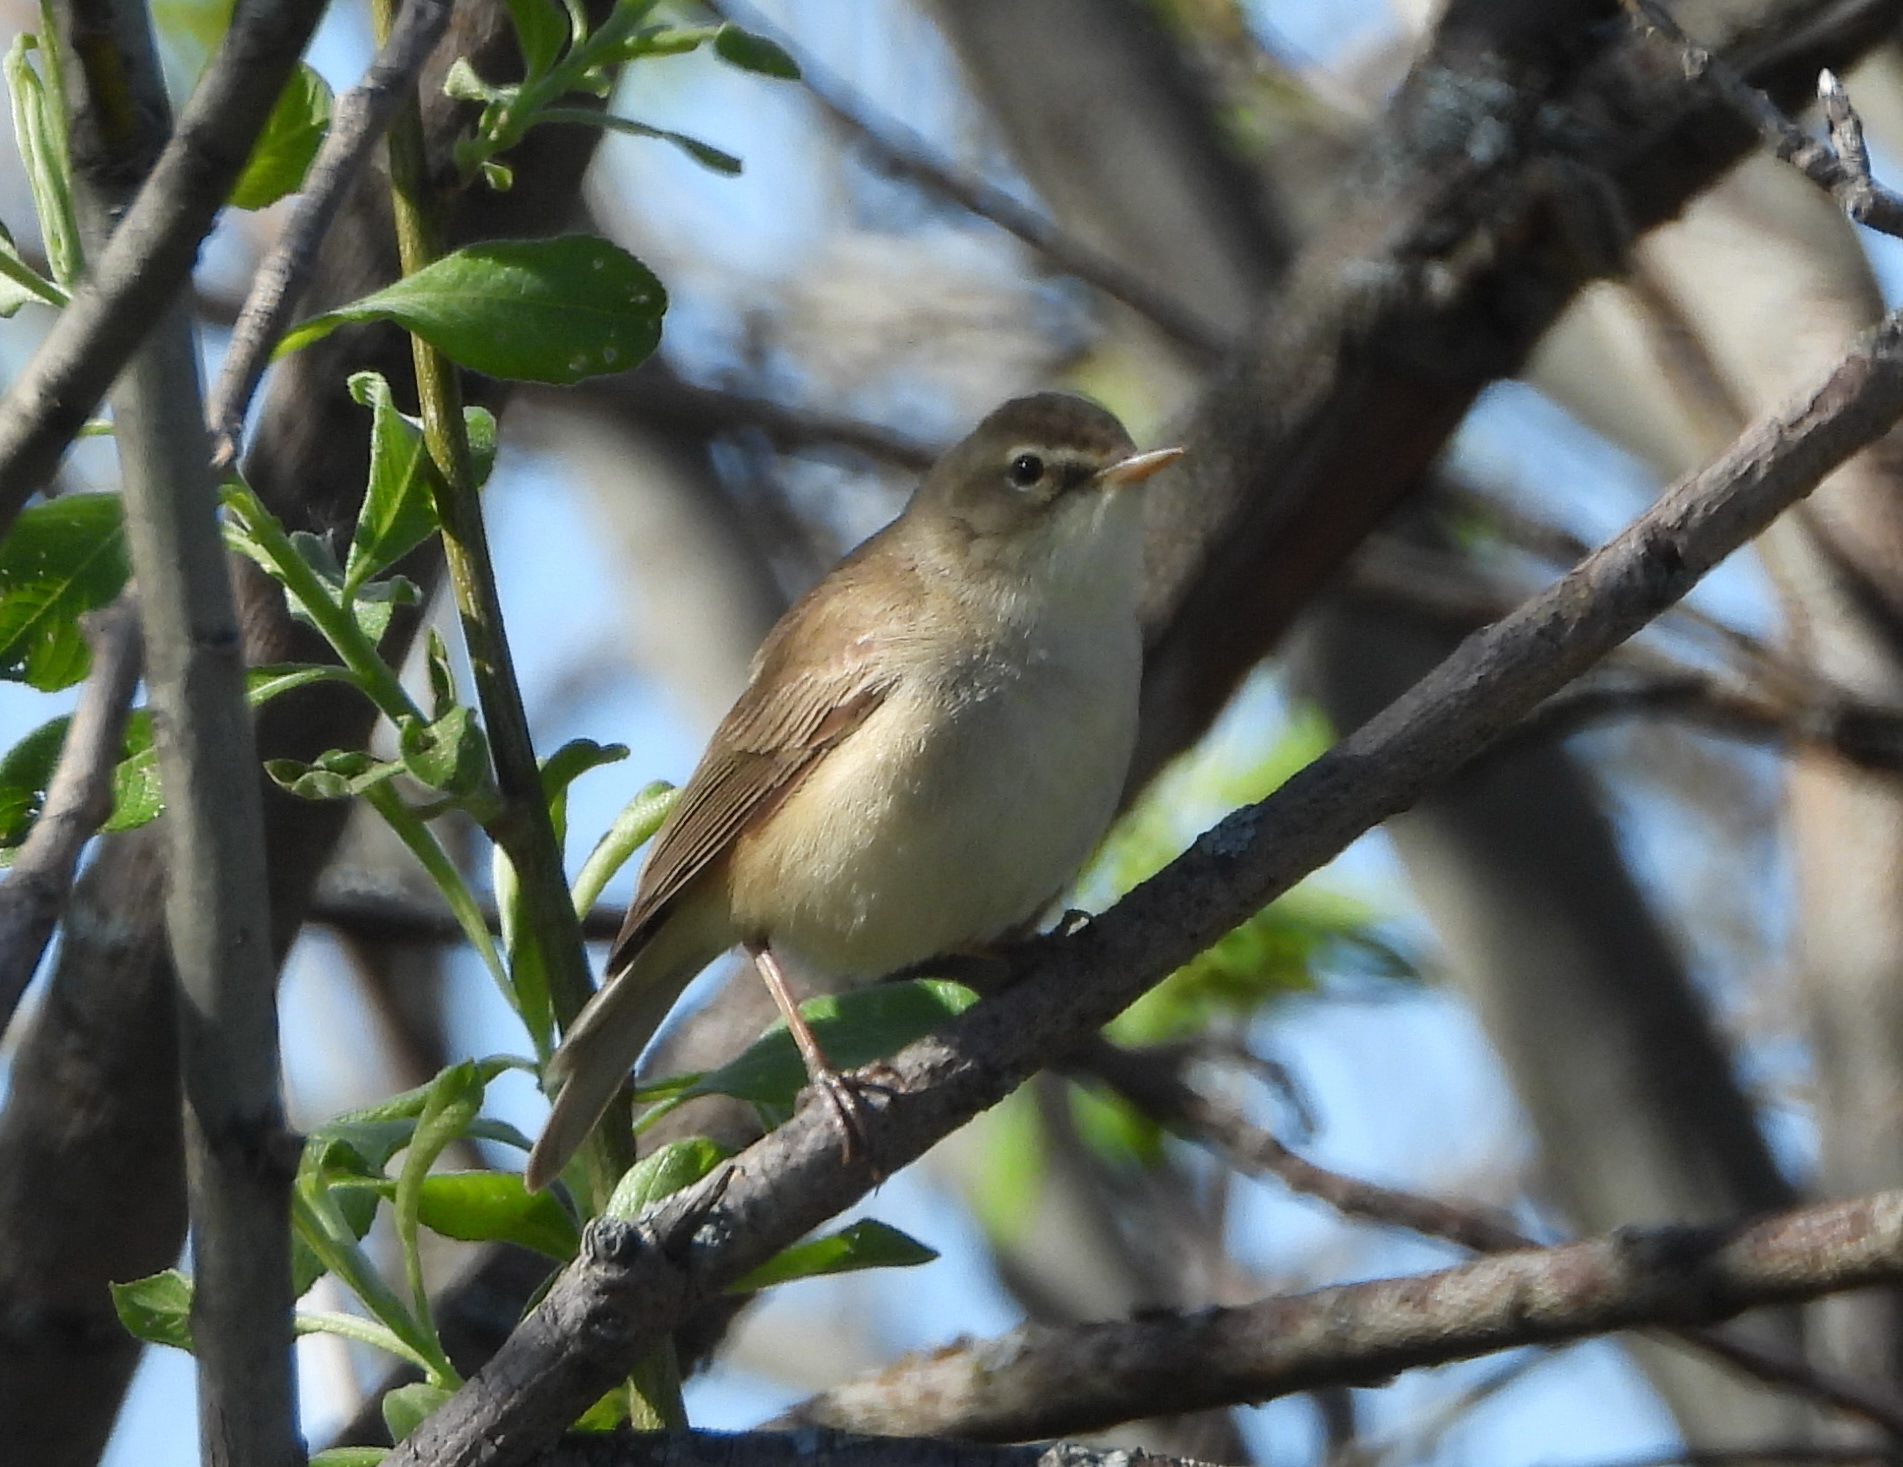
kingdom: Animalia
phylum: Chordata
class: Aves
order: Passeriformes
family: Acrocephalidae
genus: Iduna
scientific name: Iduna caligata
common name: Booted warbler
